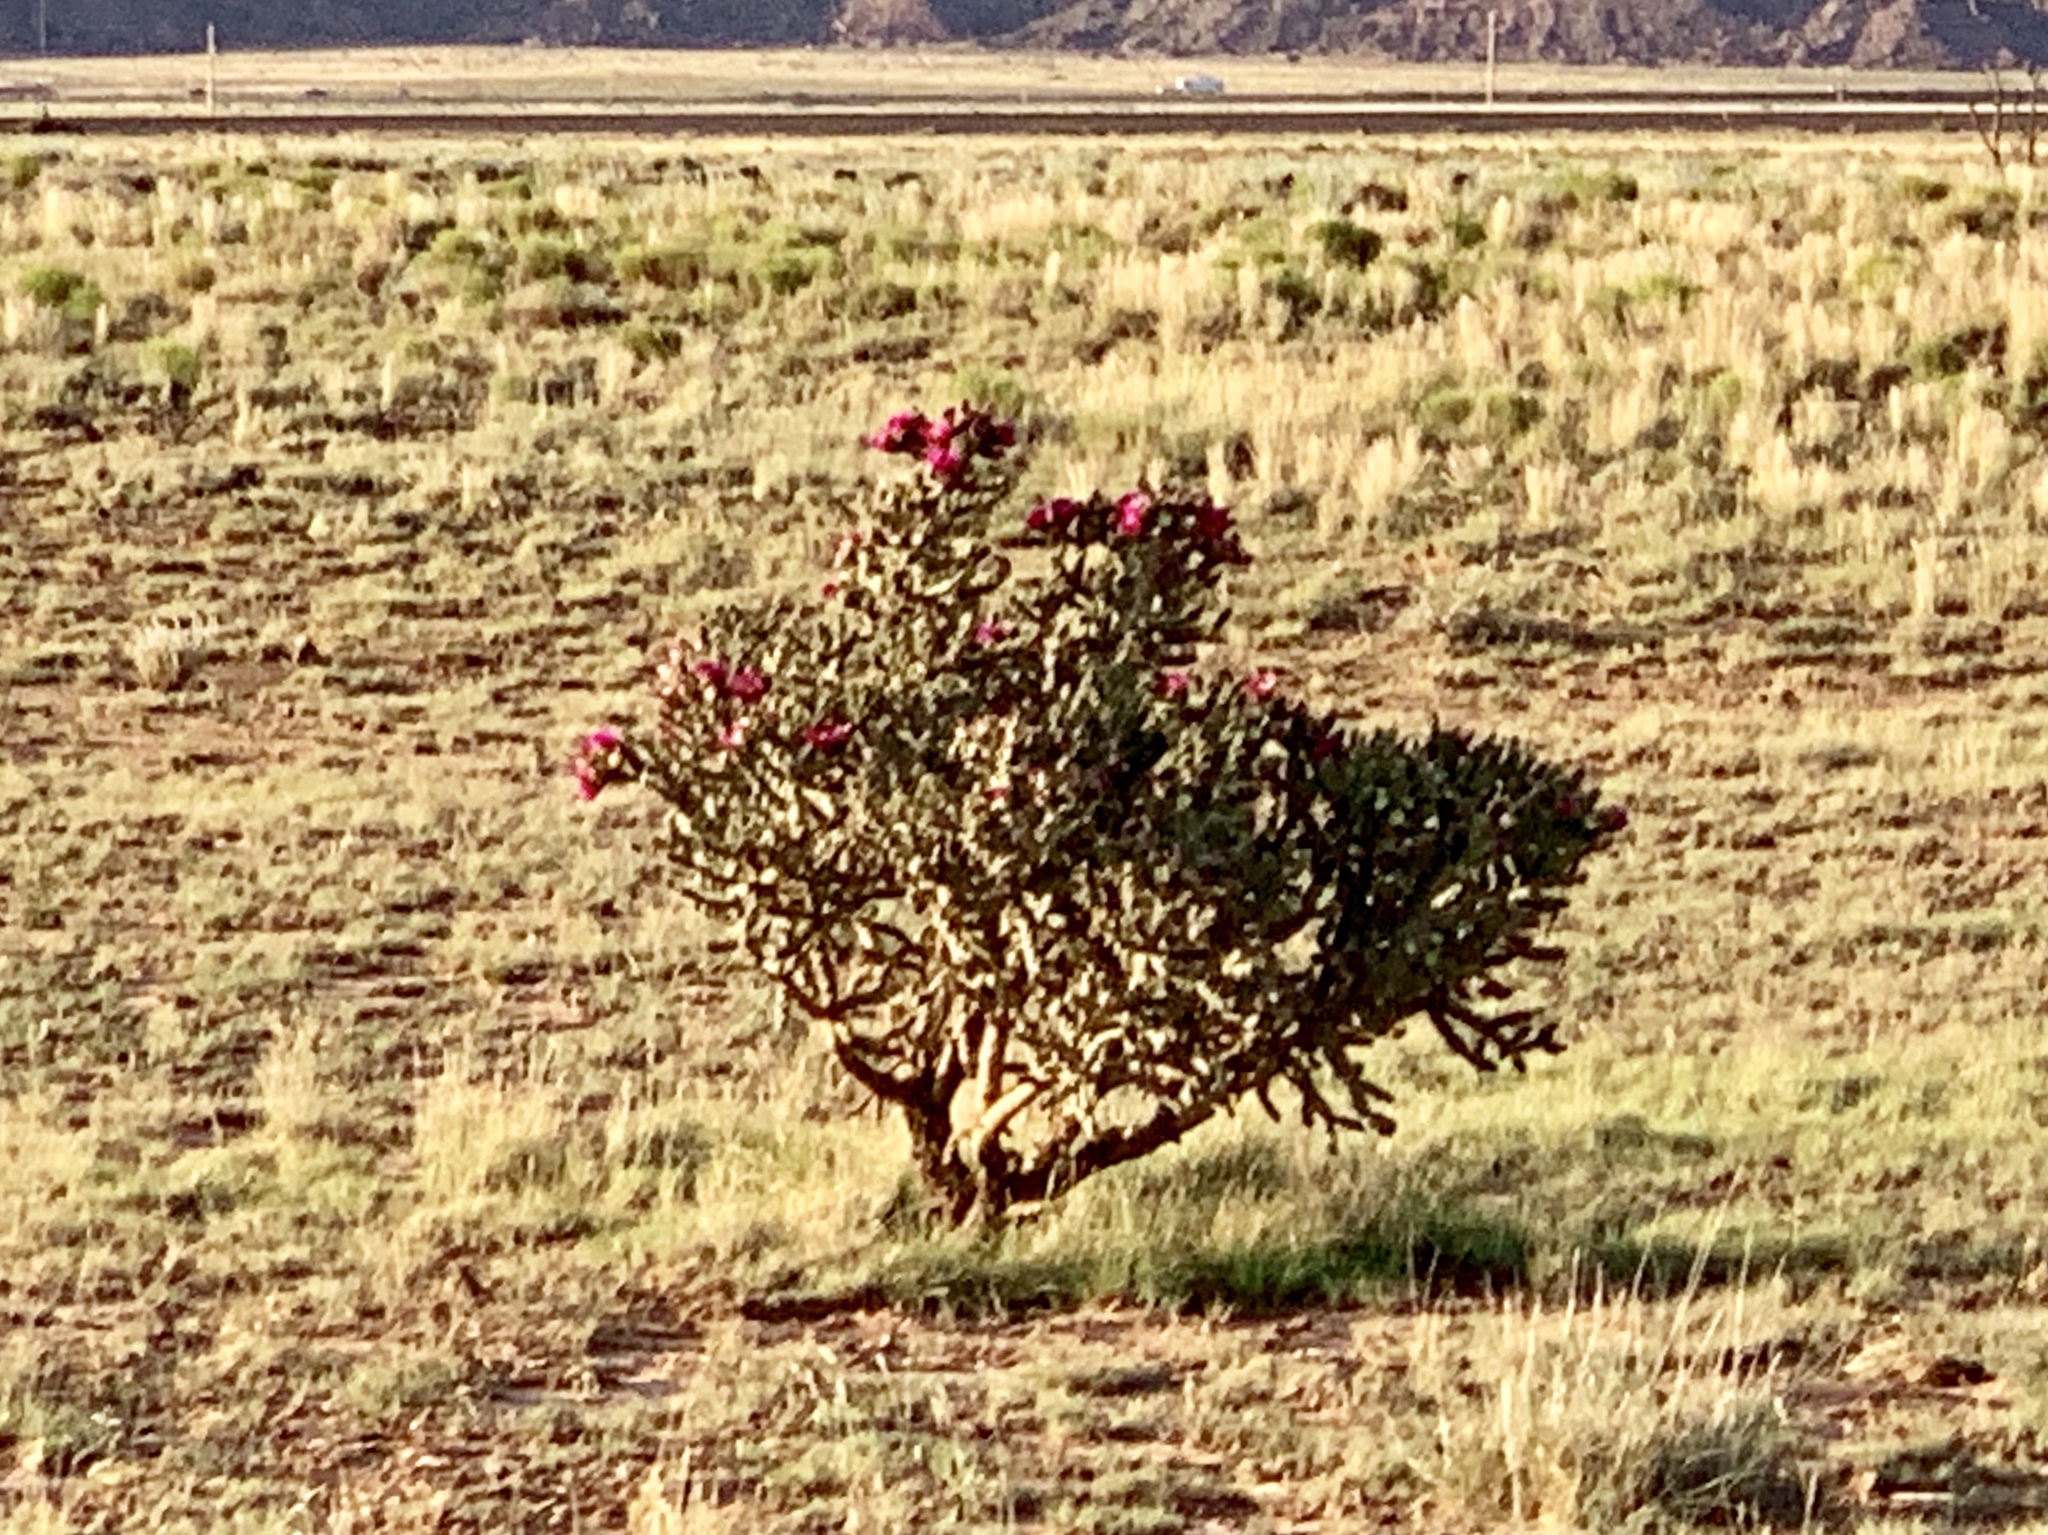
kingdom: Plantae
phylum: Tracheophyta
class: Magnoliopsida
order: Caryophyllales
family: Cactaceae
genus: Cylindropuntia
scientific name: Cylindropuntia imbricata
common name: Candelabrum cactus
